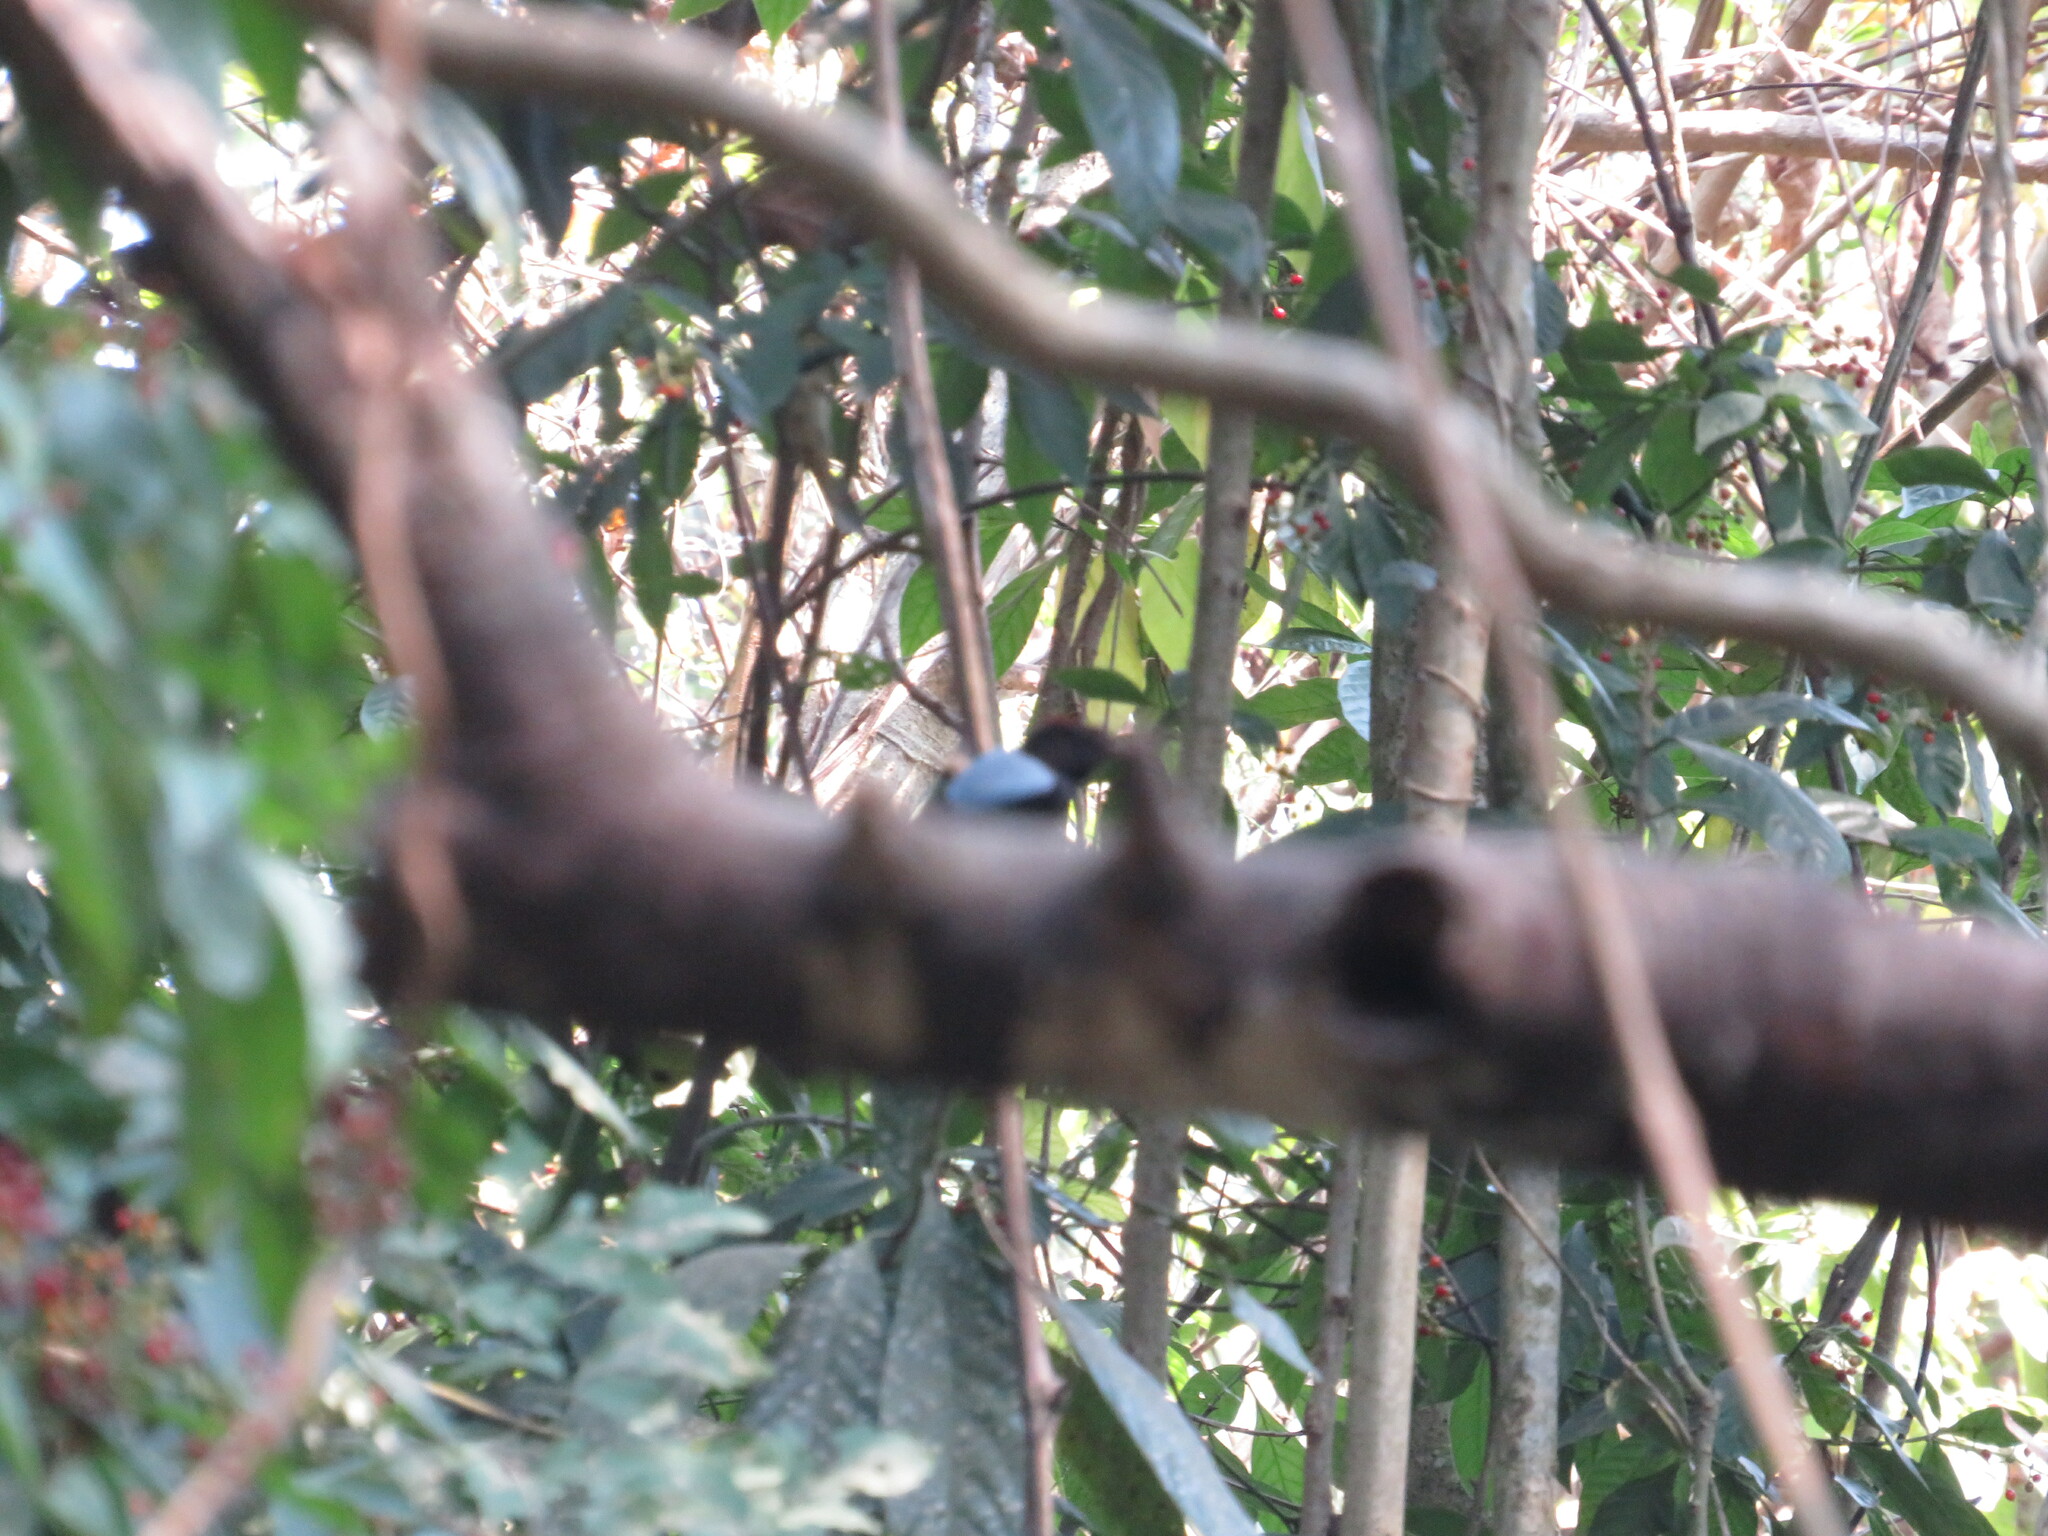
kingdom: Animalia
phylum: Chordata
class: Aves
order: Passeriformes
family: Pipridae
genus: Chiroxiphia
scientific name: Chiroxiphia boliviana
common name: Yungas manakin
